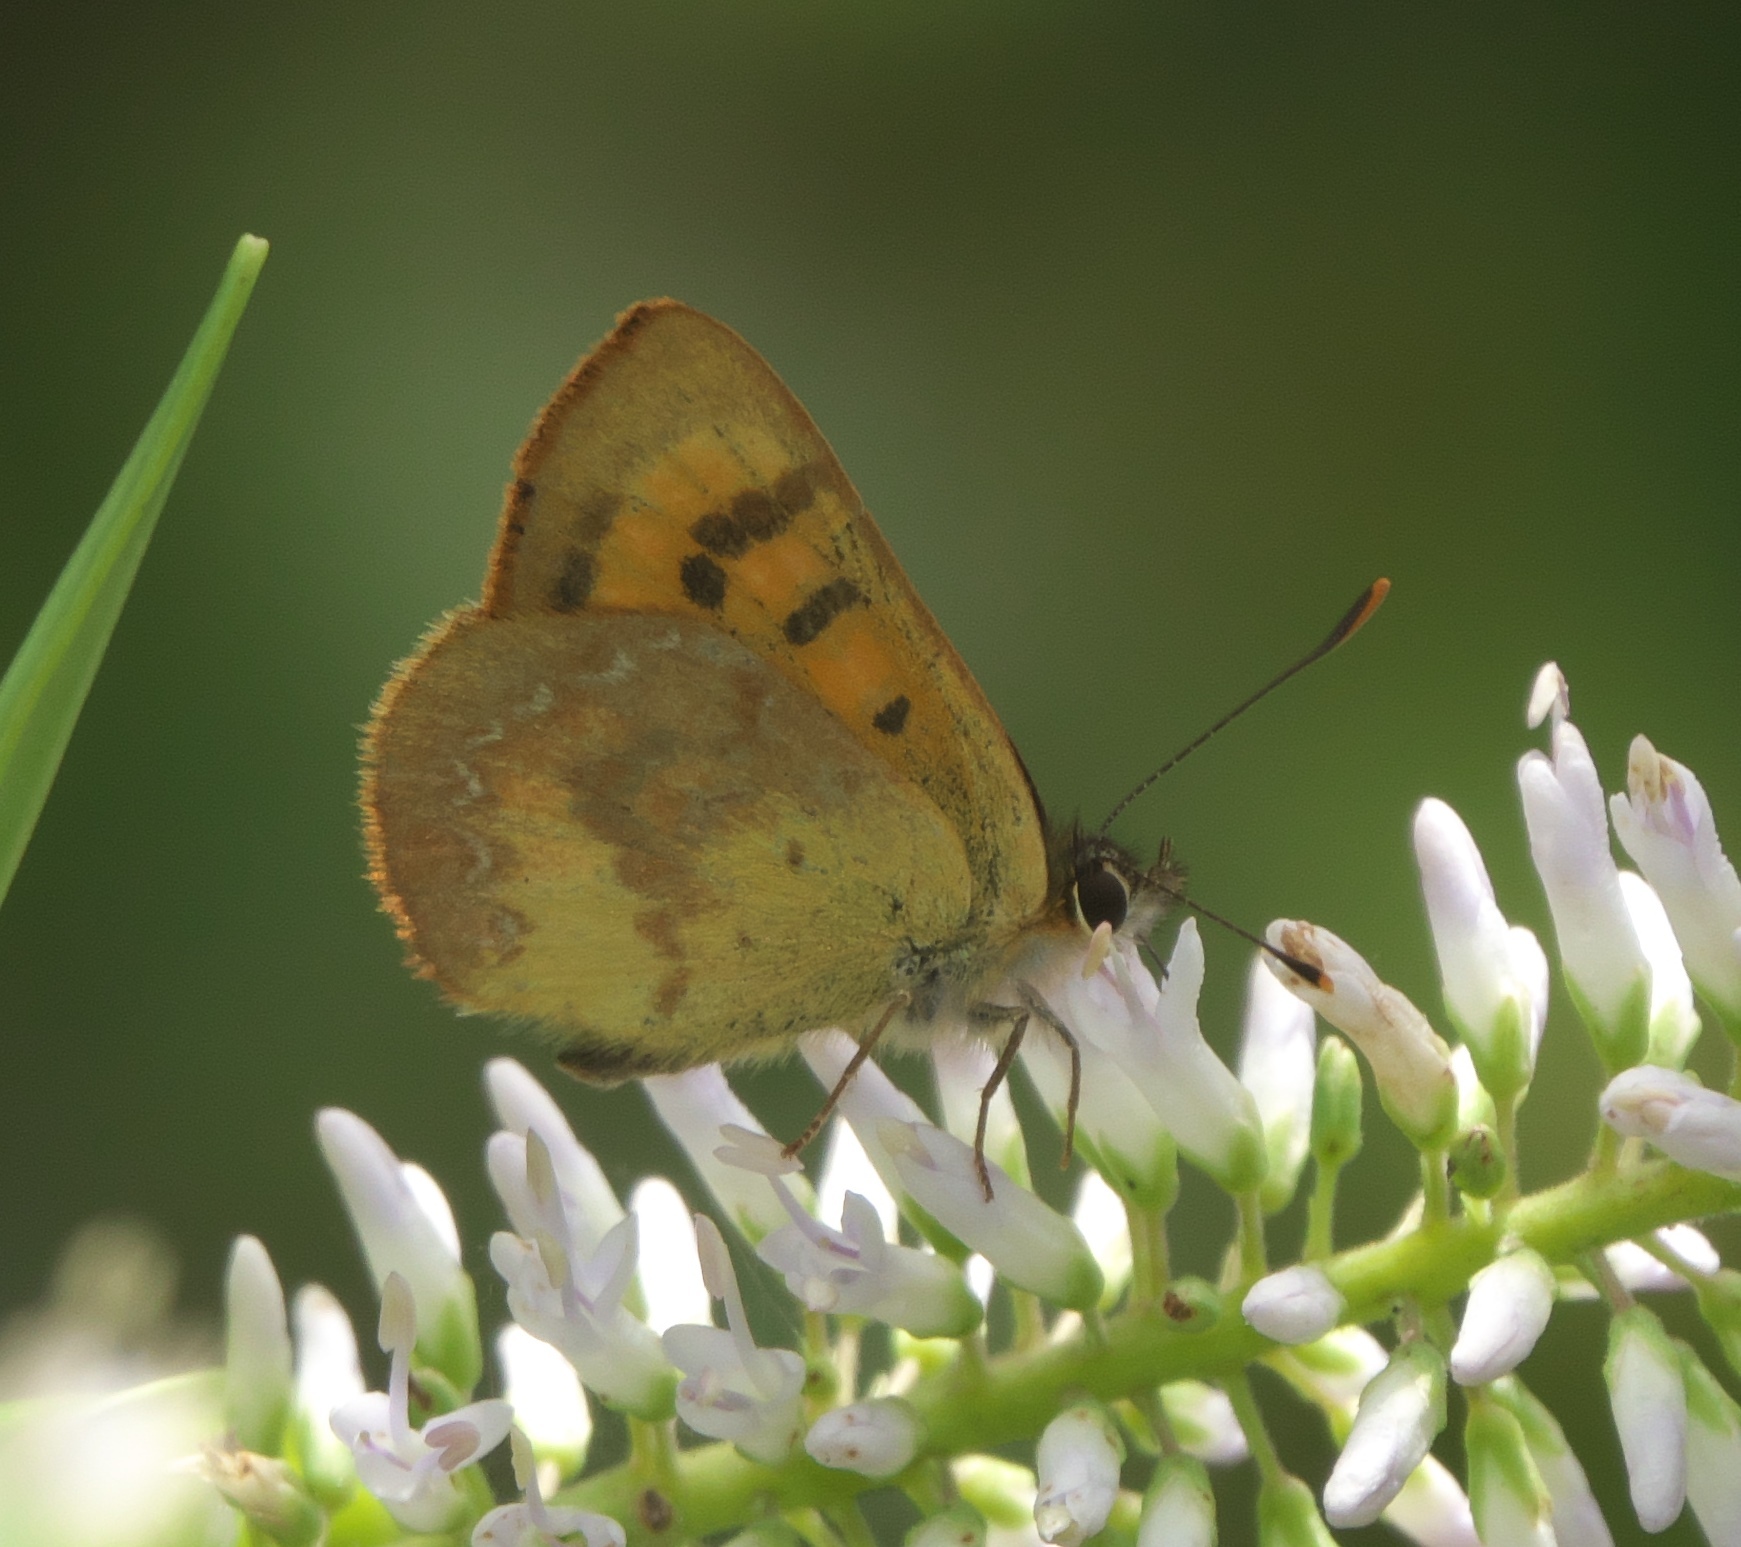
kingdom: Animalia
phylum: Arthropoda
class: Insecta
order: Lepidoptera
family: Lycaenidae
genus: Lycaena
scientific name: Lycaena
